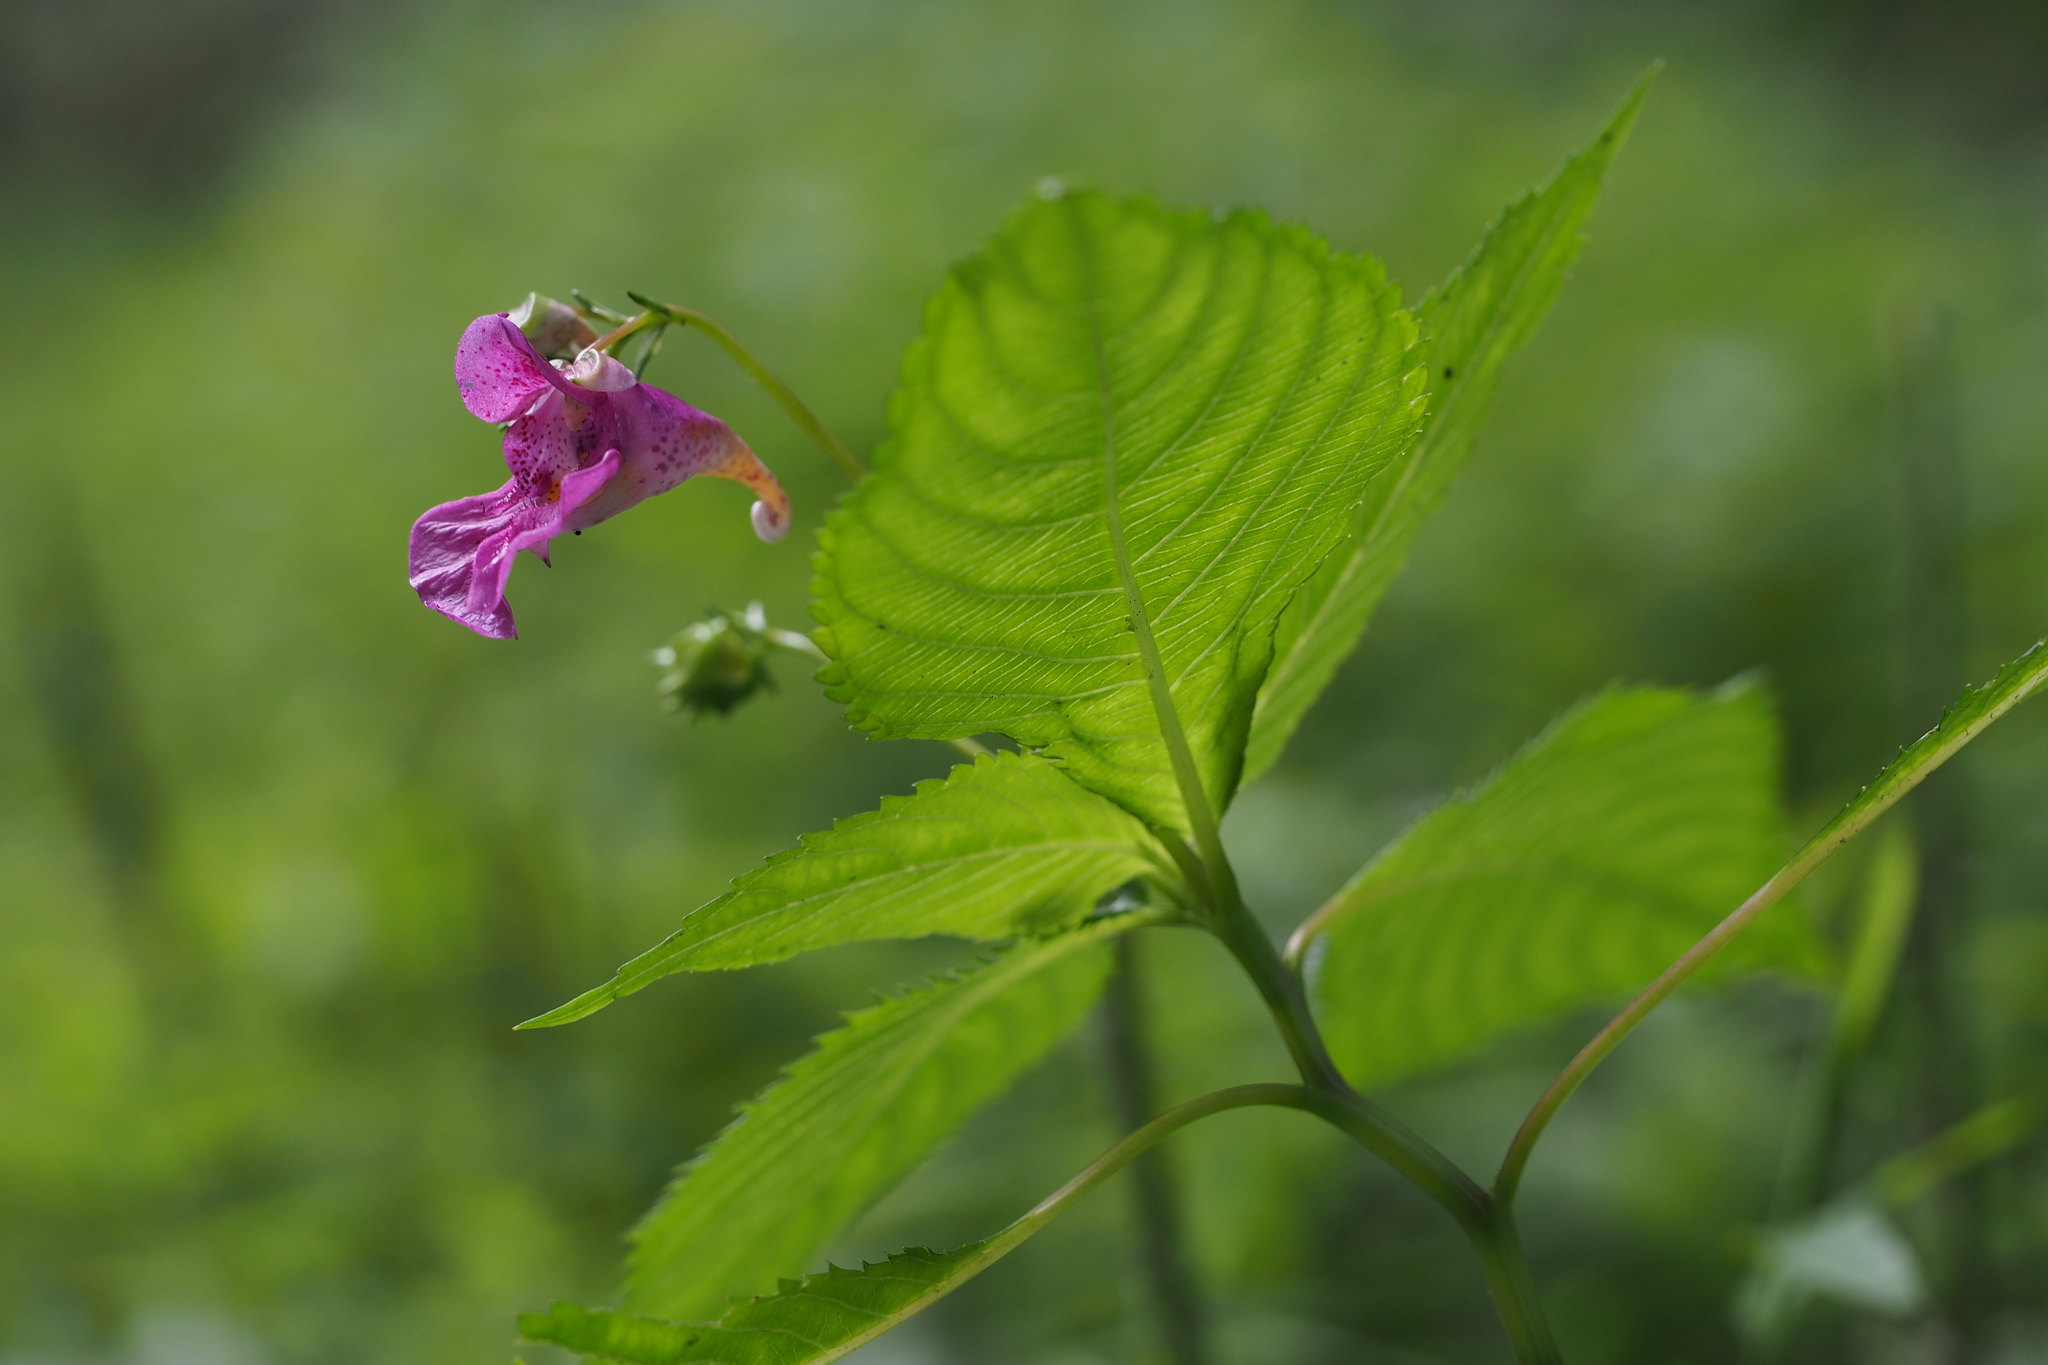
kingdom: Plantae
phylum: Tracheophyta
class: Magnoliopsida
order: Ericales
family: Balsaminaceae
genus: Impatiens
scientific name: Impatiens textorii
